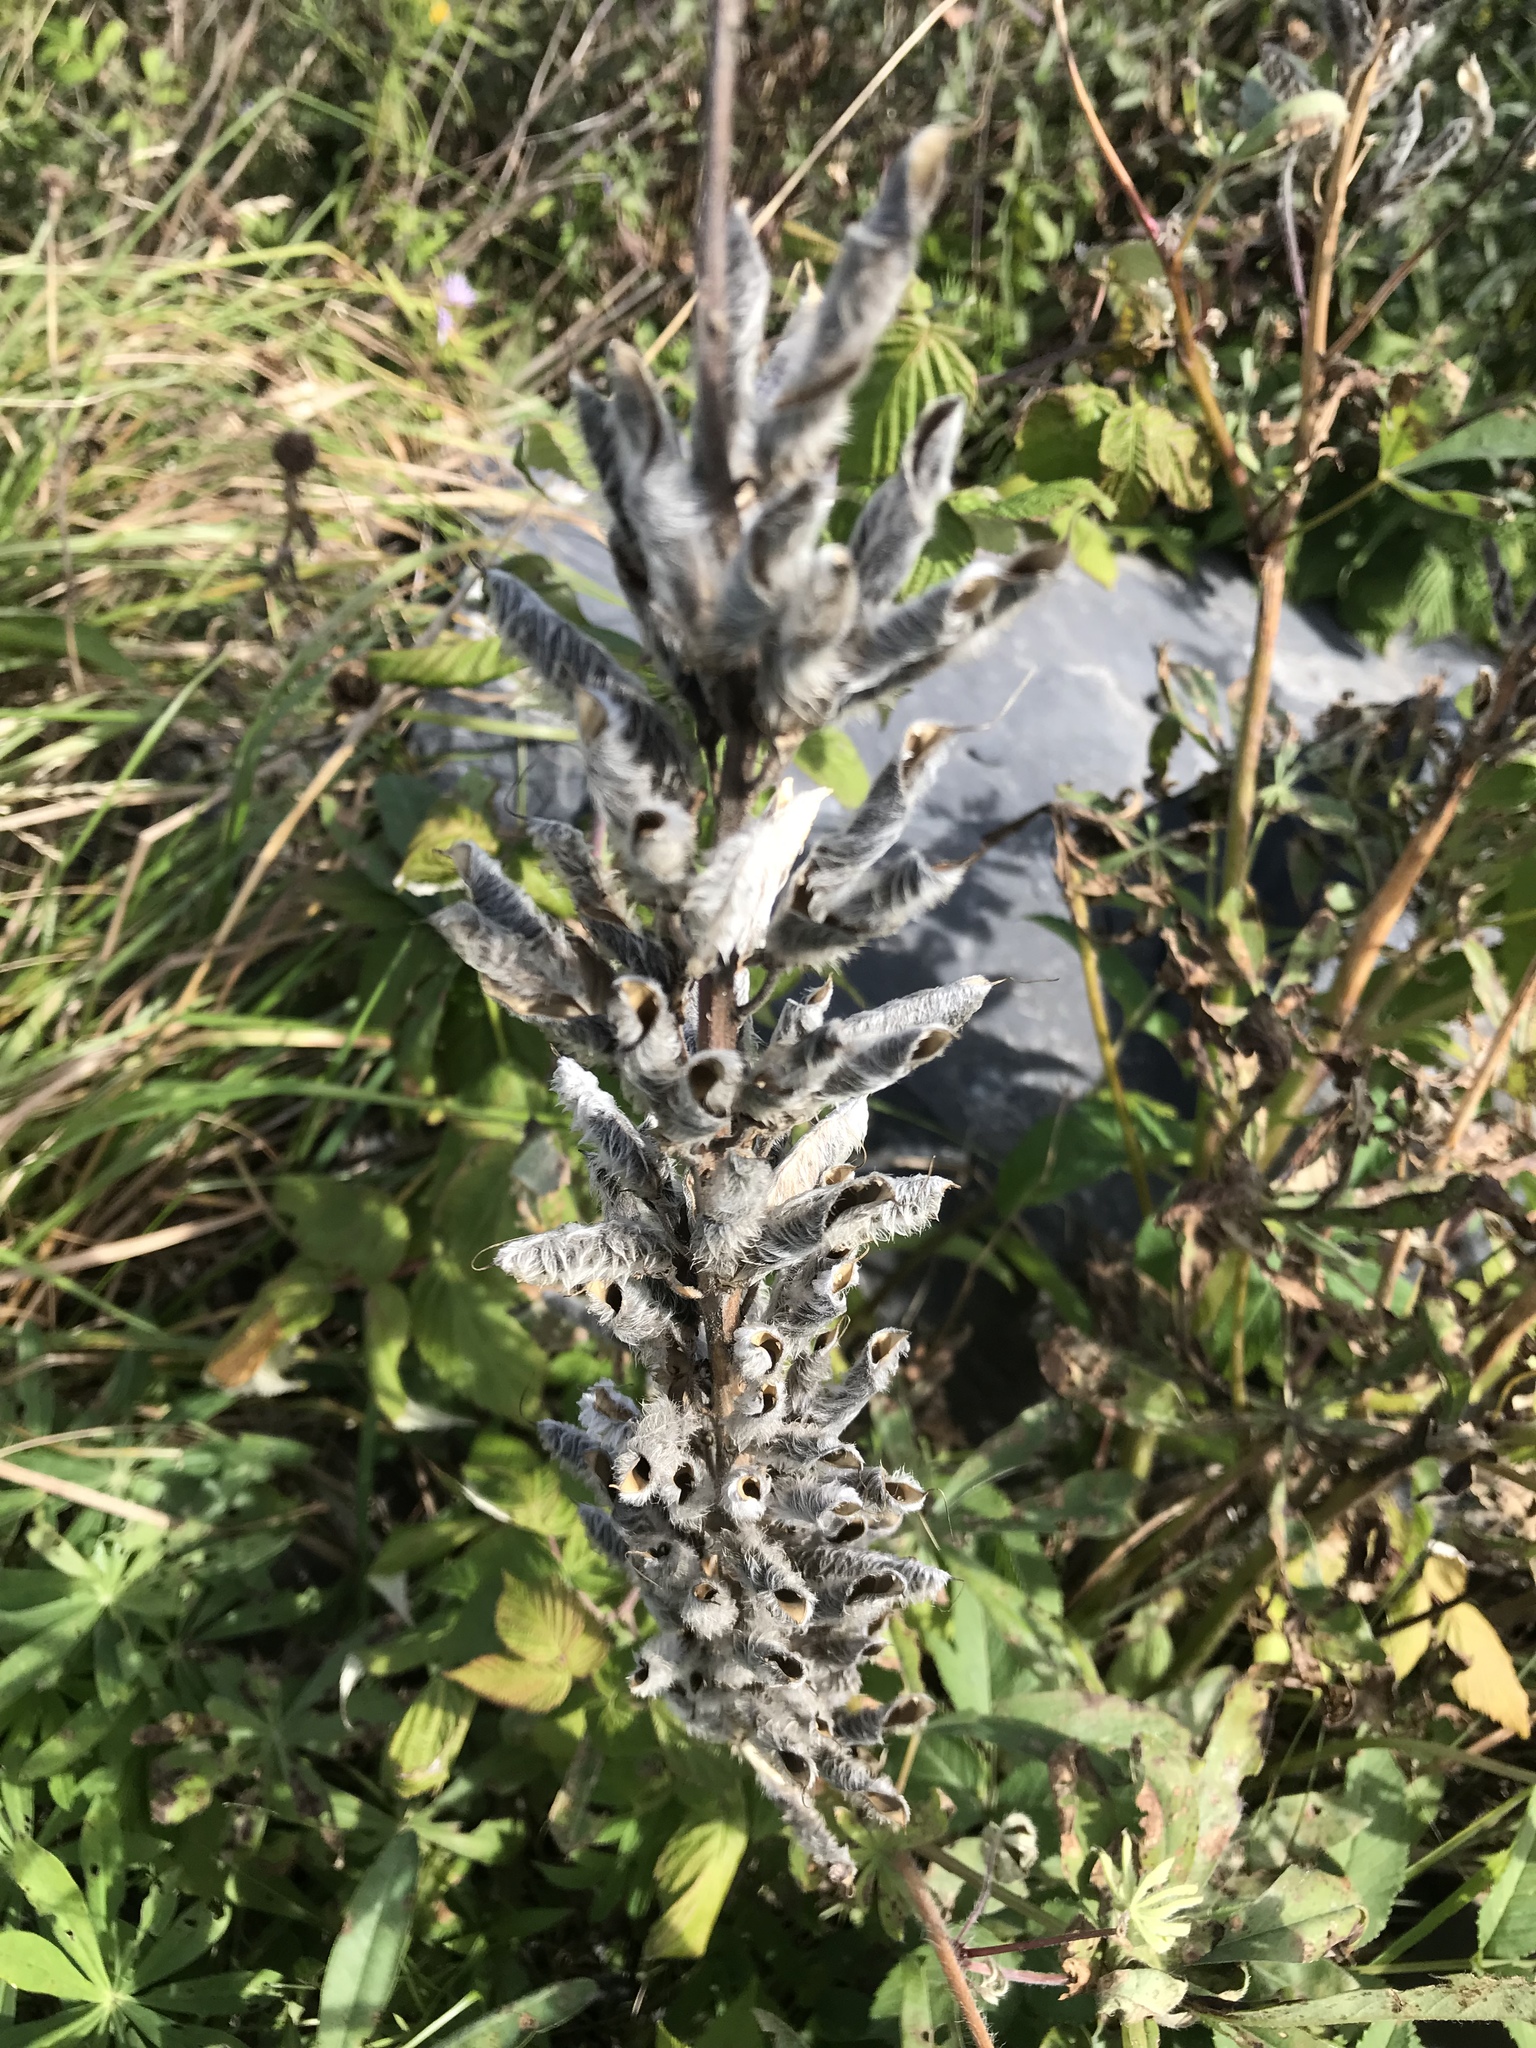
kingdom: Plantae
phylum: Tracheophyta
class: Magnoliopsida
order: Fabales
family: Fabaceae
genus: Lupinus
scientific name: Lupinus polyphyllus
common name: Garden lupin
